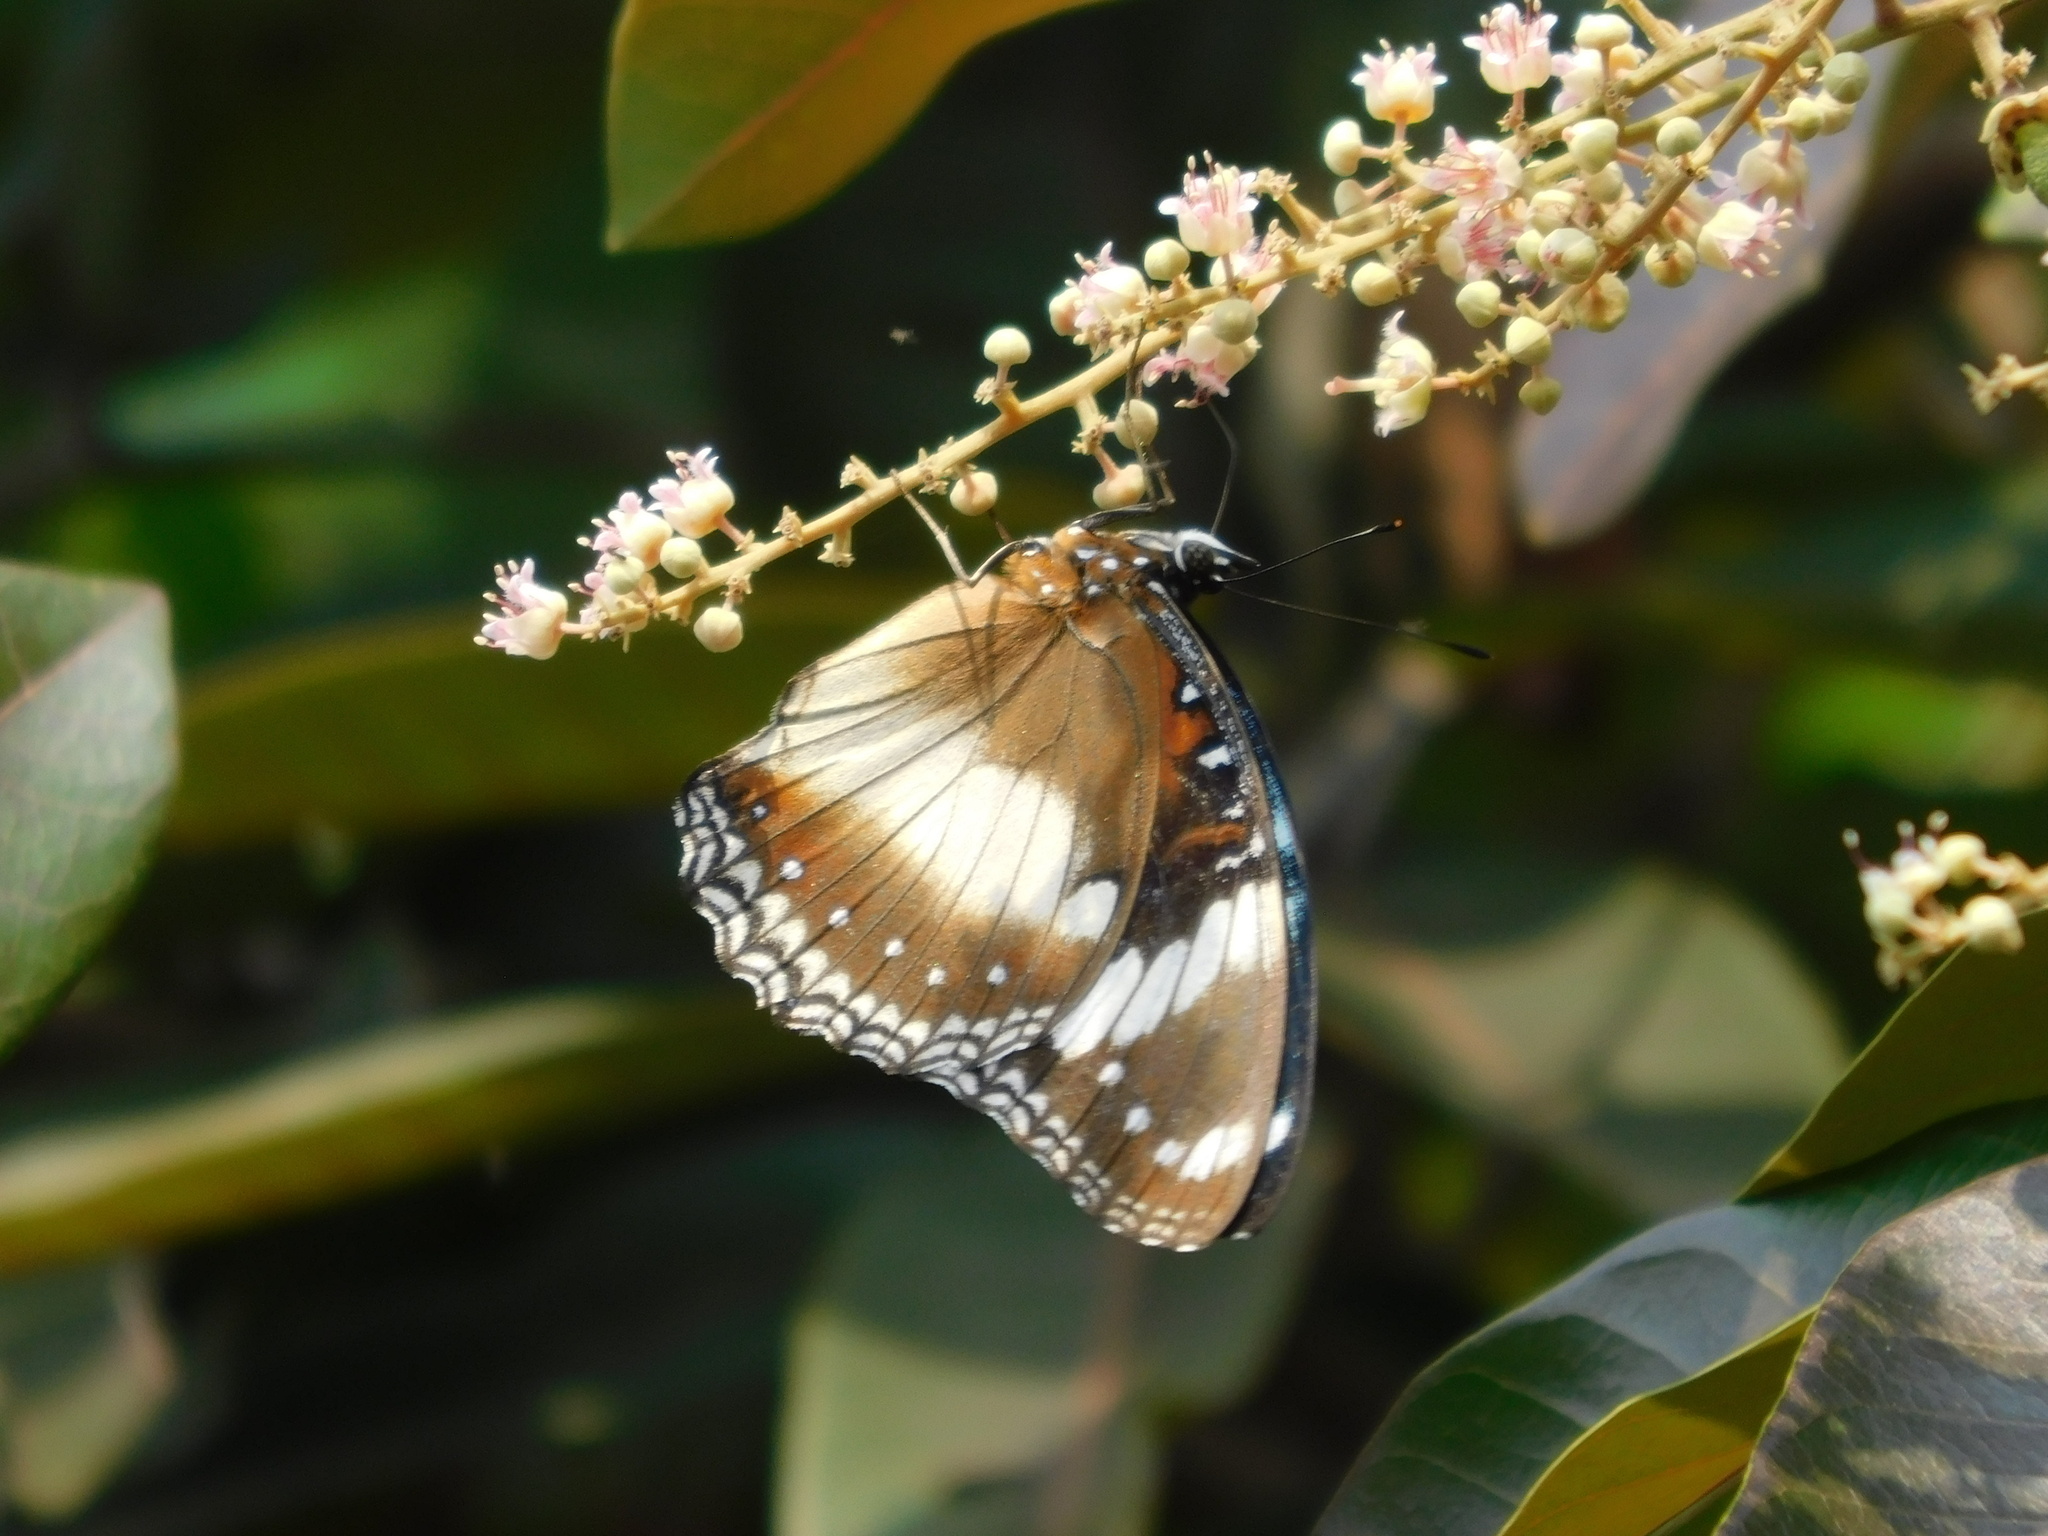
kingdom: Animalia
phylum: Arthropoda
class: Insecta
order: Lepidoptera
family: Nymphalidae
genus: Hypolimnas
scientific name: Hypolimnas bolina
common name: Great eggfly
